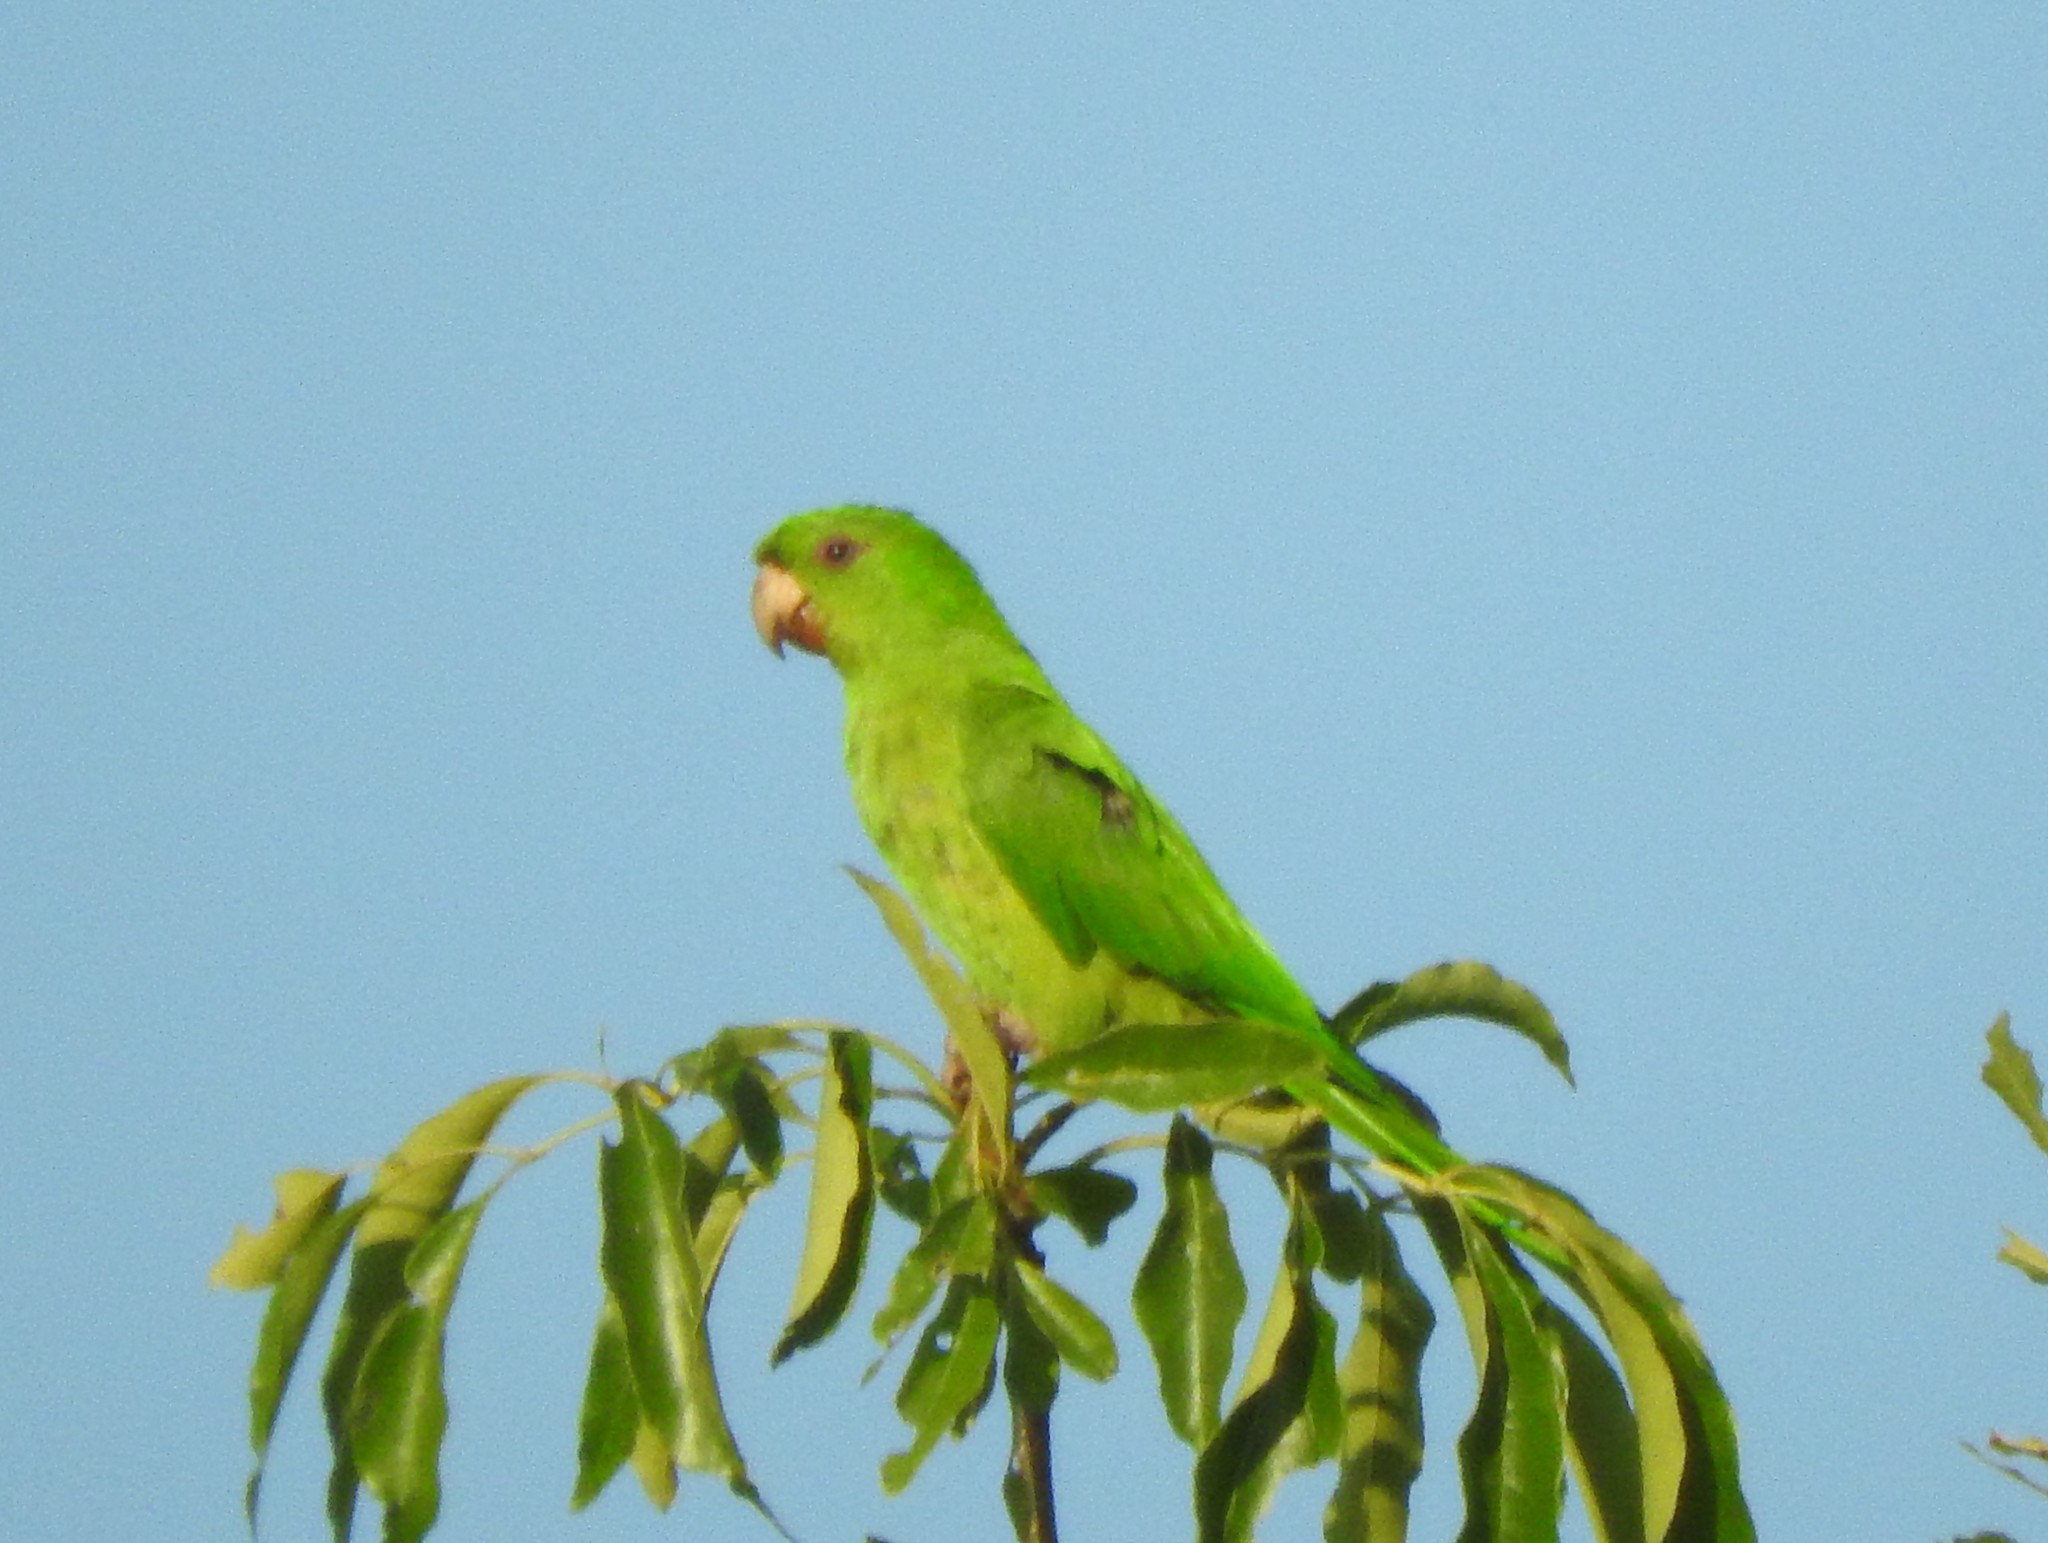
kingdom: Animalia
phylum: Chordata
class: Aves
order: Psittaciformes
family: Psittacidae
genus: Aratinga
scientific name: Aratinga holochlora
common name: Green parakeet
